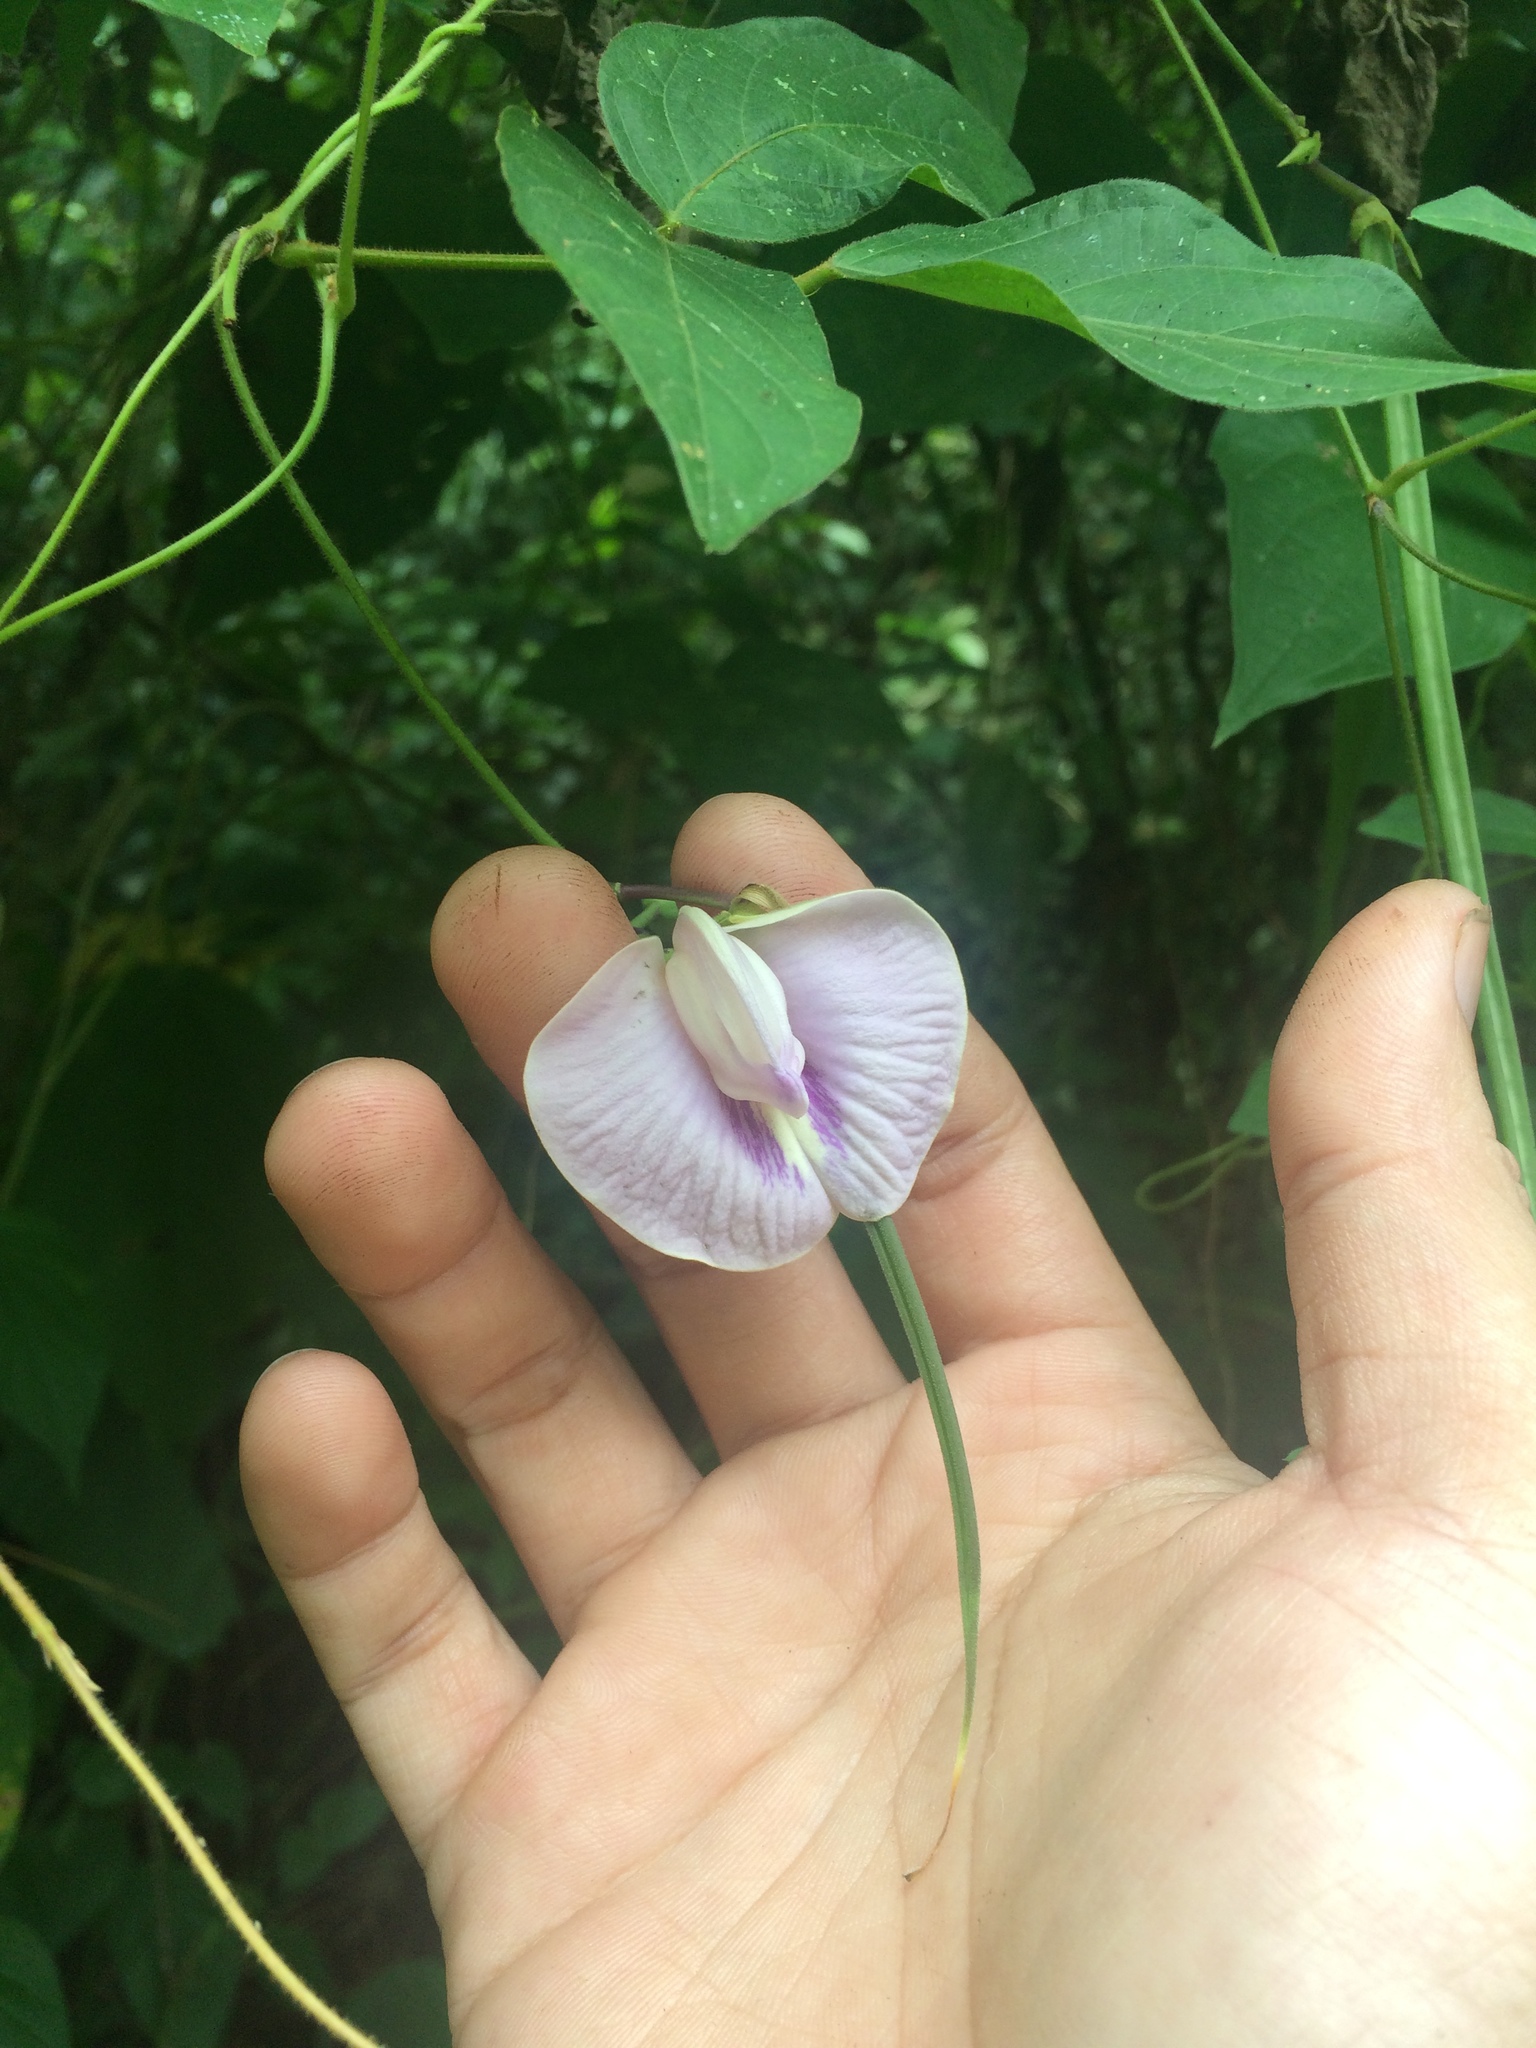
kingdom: Plantae
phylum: Tracheophyta
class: Magnoliopsida
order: Fabales
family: Fabaceae
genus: Centrosema
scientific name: Centrosema pubescens
